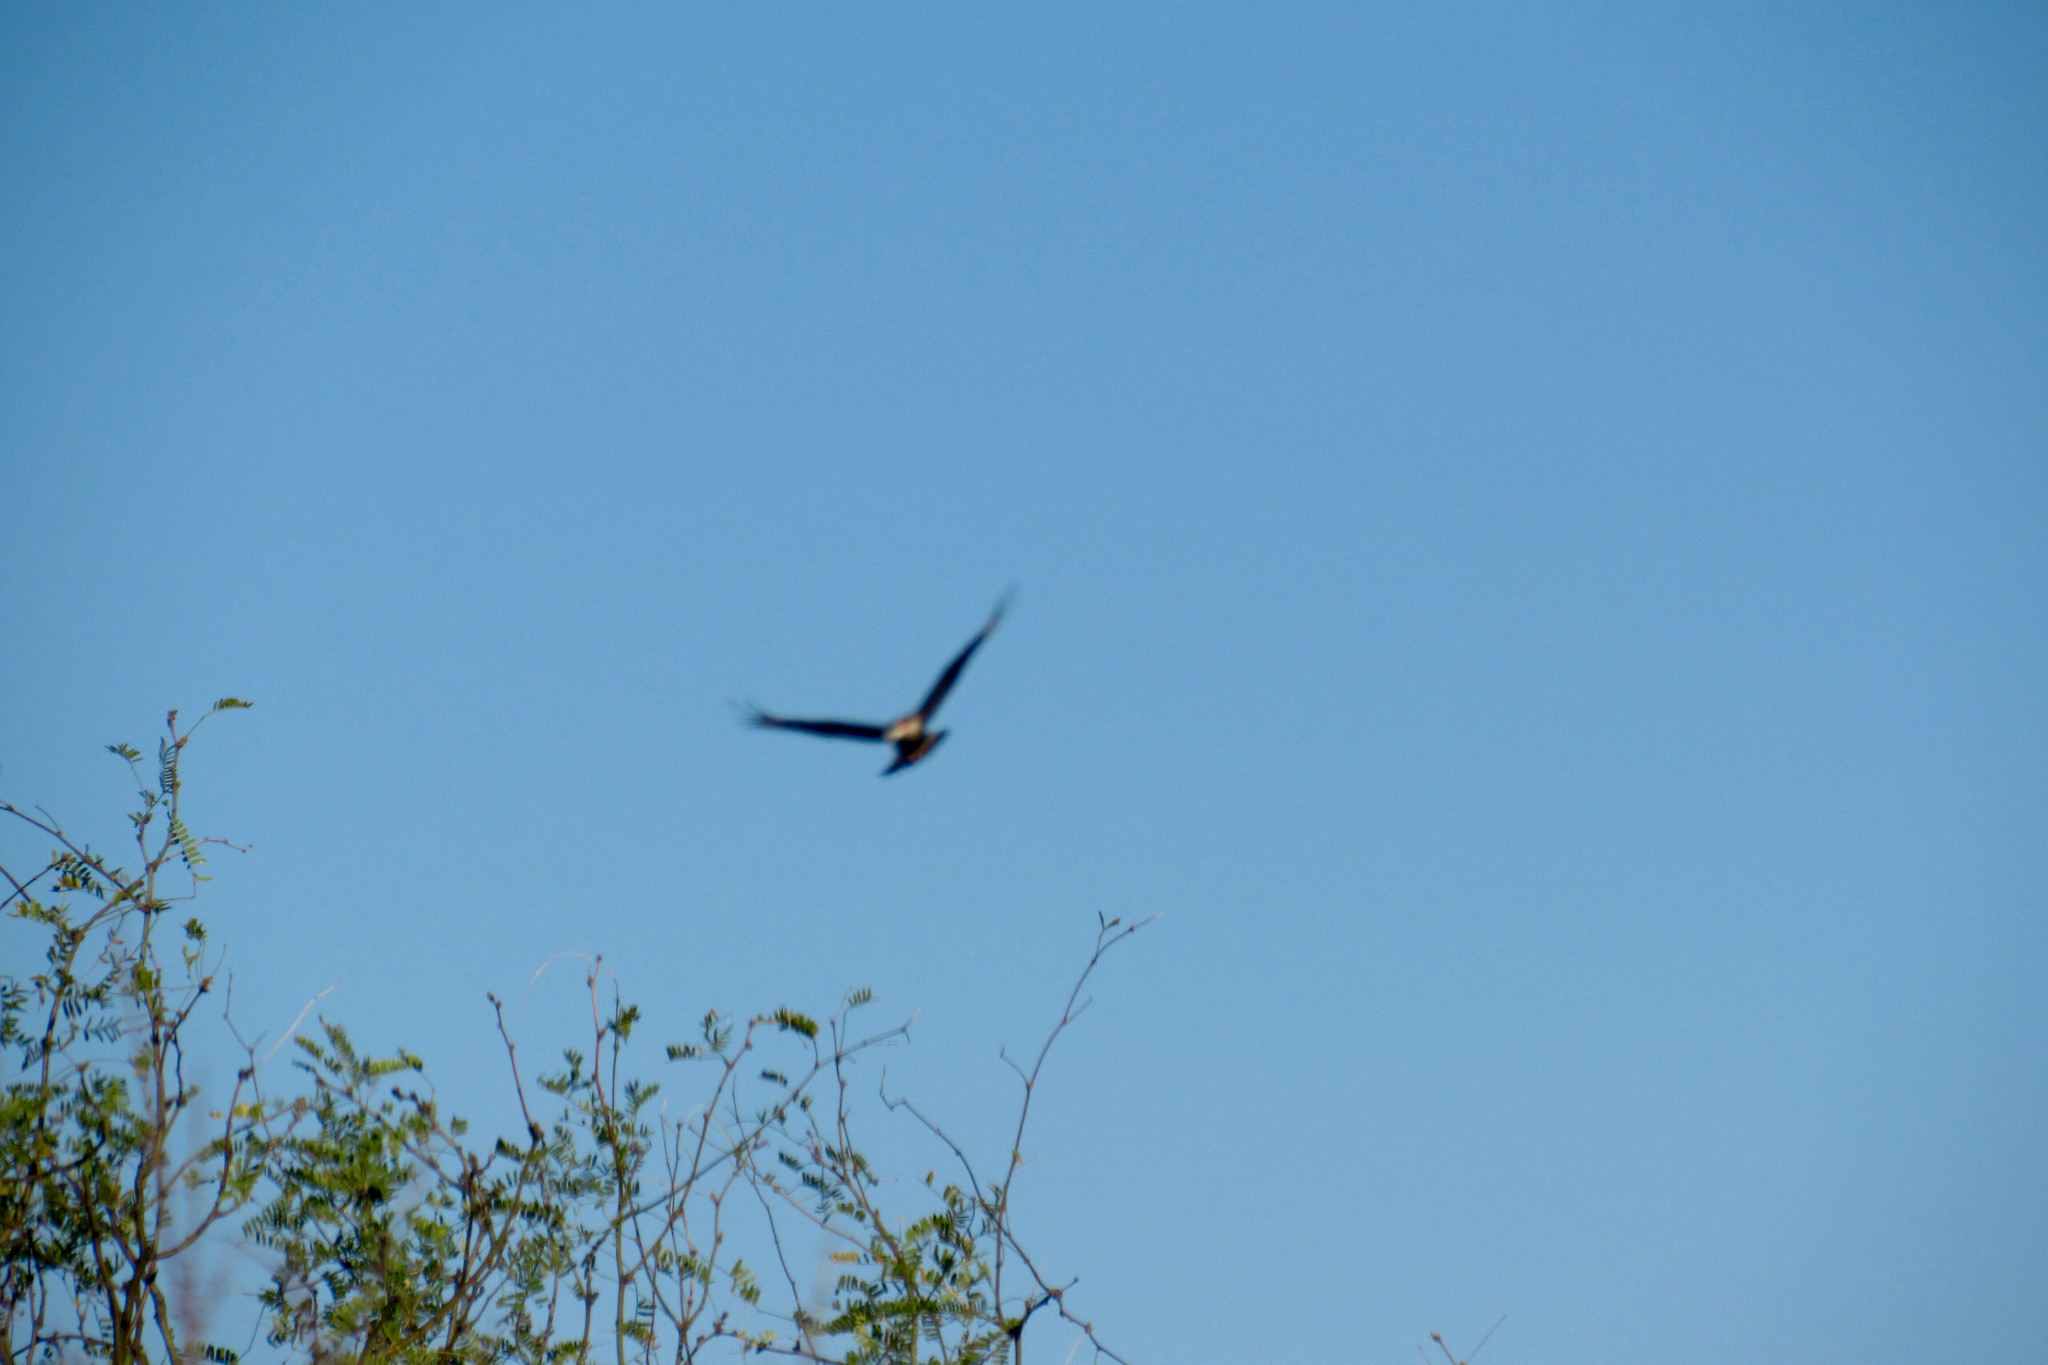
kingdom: Animalia
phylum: Chordata
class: Aves
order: Falconiformes
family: Falconidae
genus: Caracara
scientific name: Caracara plancus
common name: Southern caracara
